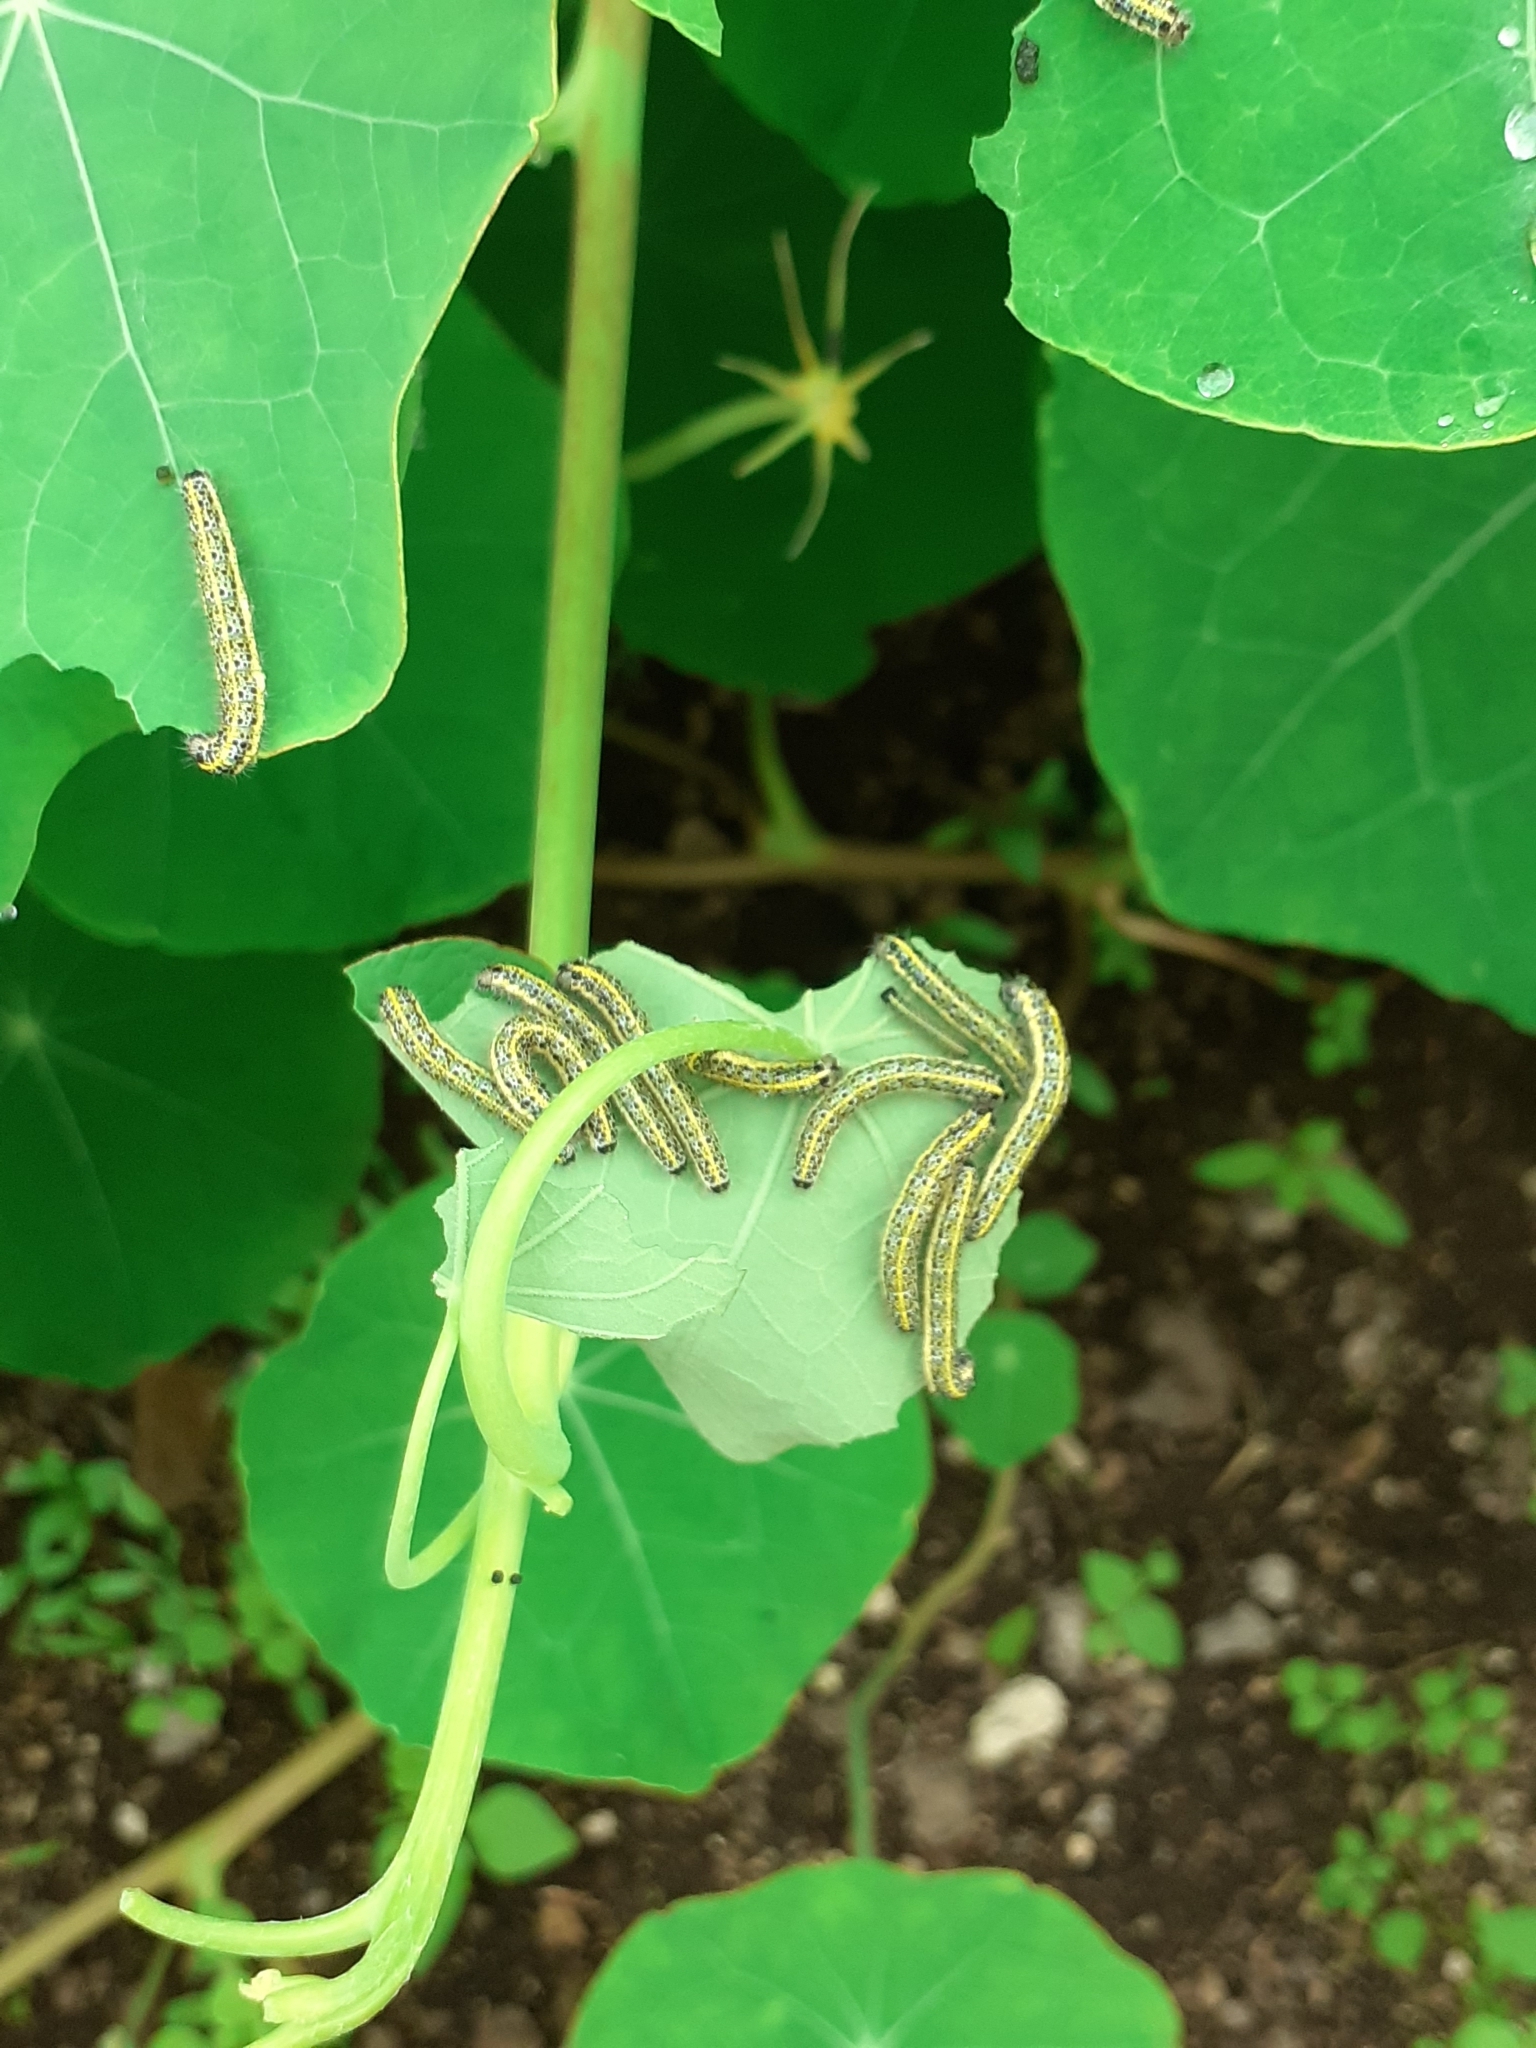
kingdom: Animalia
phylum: Arthropoda
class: Insecta
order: Lepidoptera
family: Pieridae
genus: Pieris
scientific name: Pieris cheiranthi
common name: Canary islands large white
